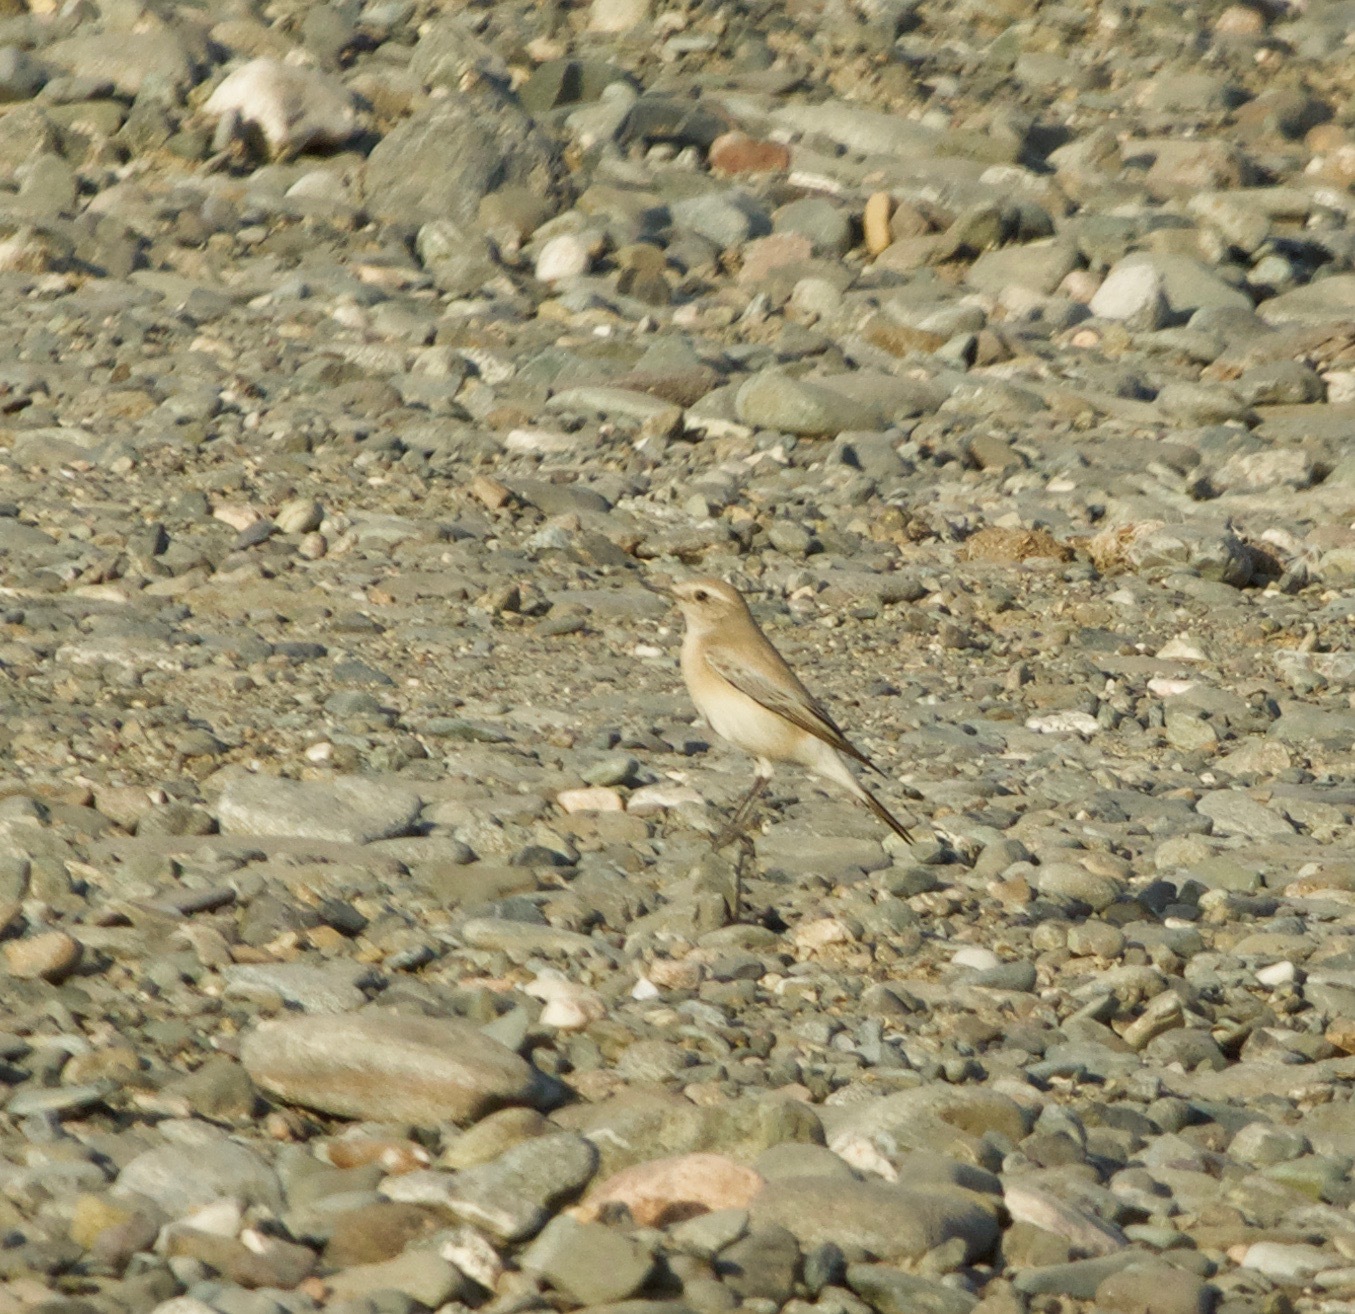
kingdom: Animalia
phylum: Chordata
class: Aves
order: Passeriformes
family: Muscicapidae
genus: Oenanthe
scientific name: Oenanthe deserti
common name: Desert wheatear
